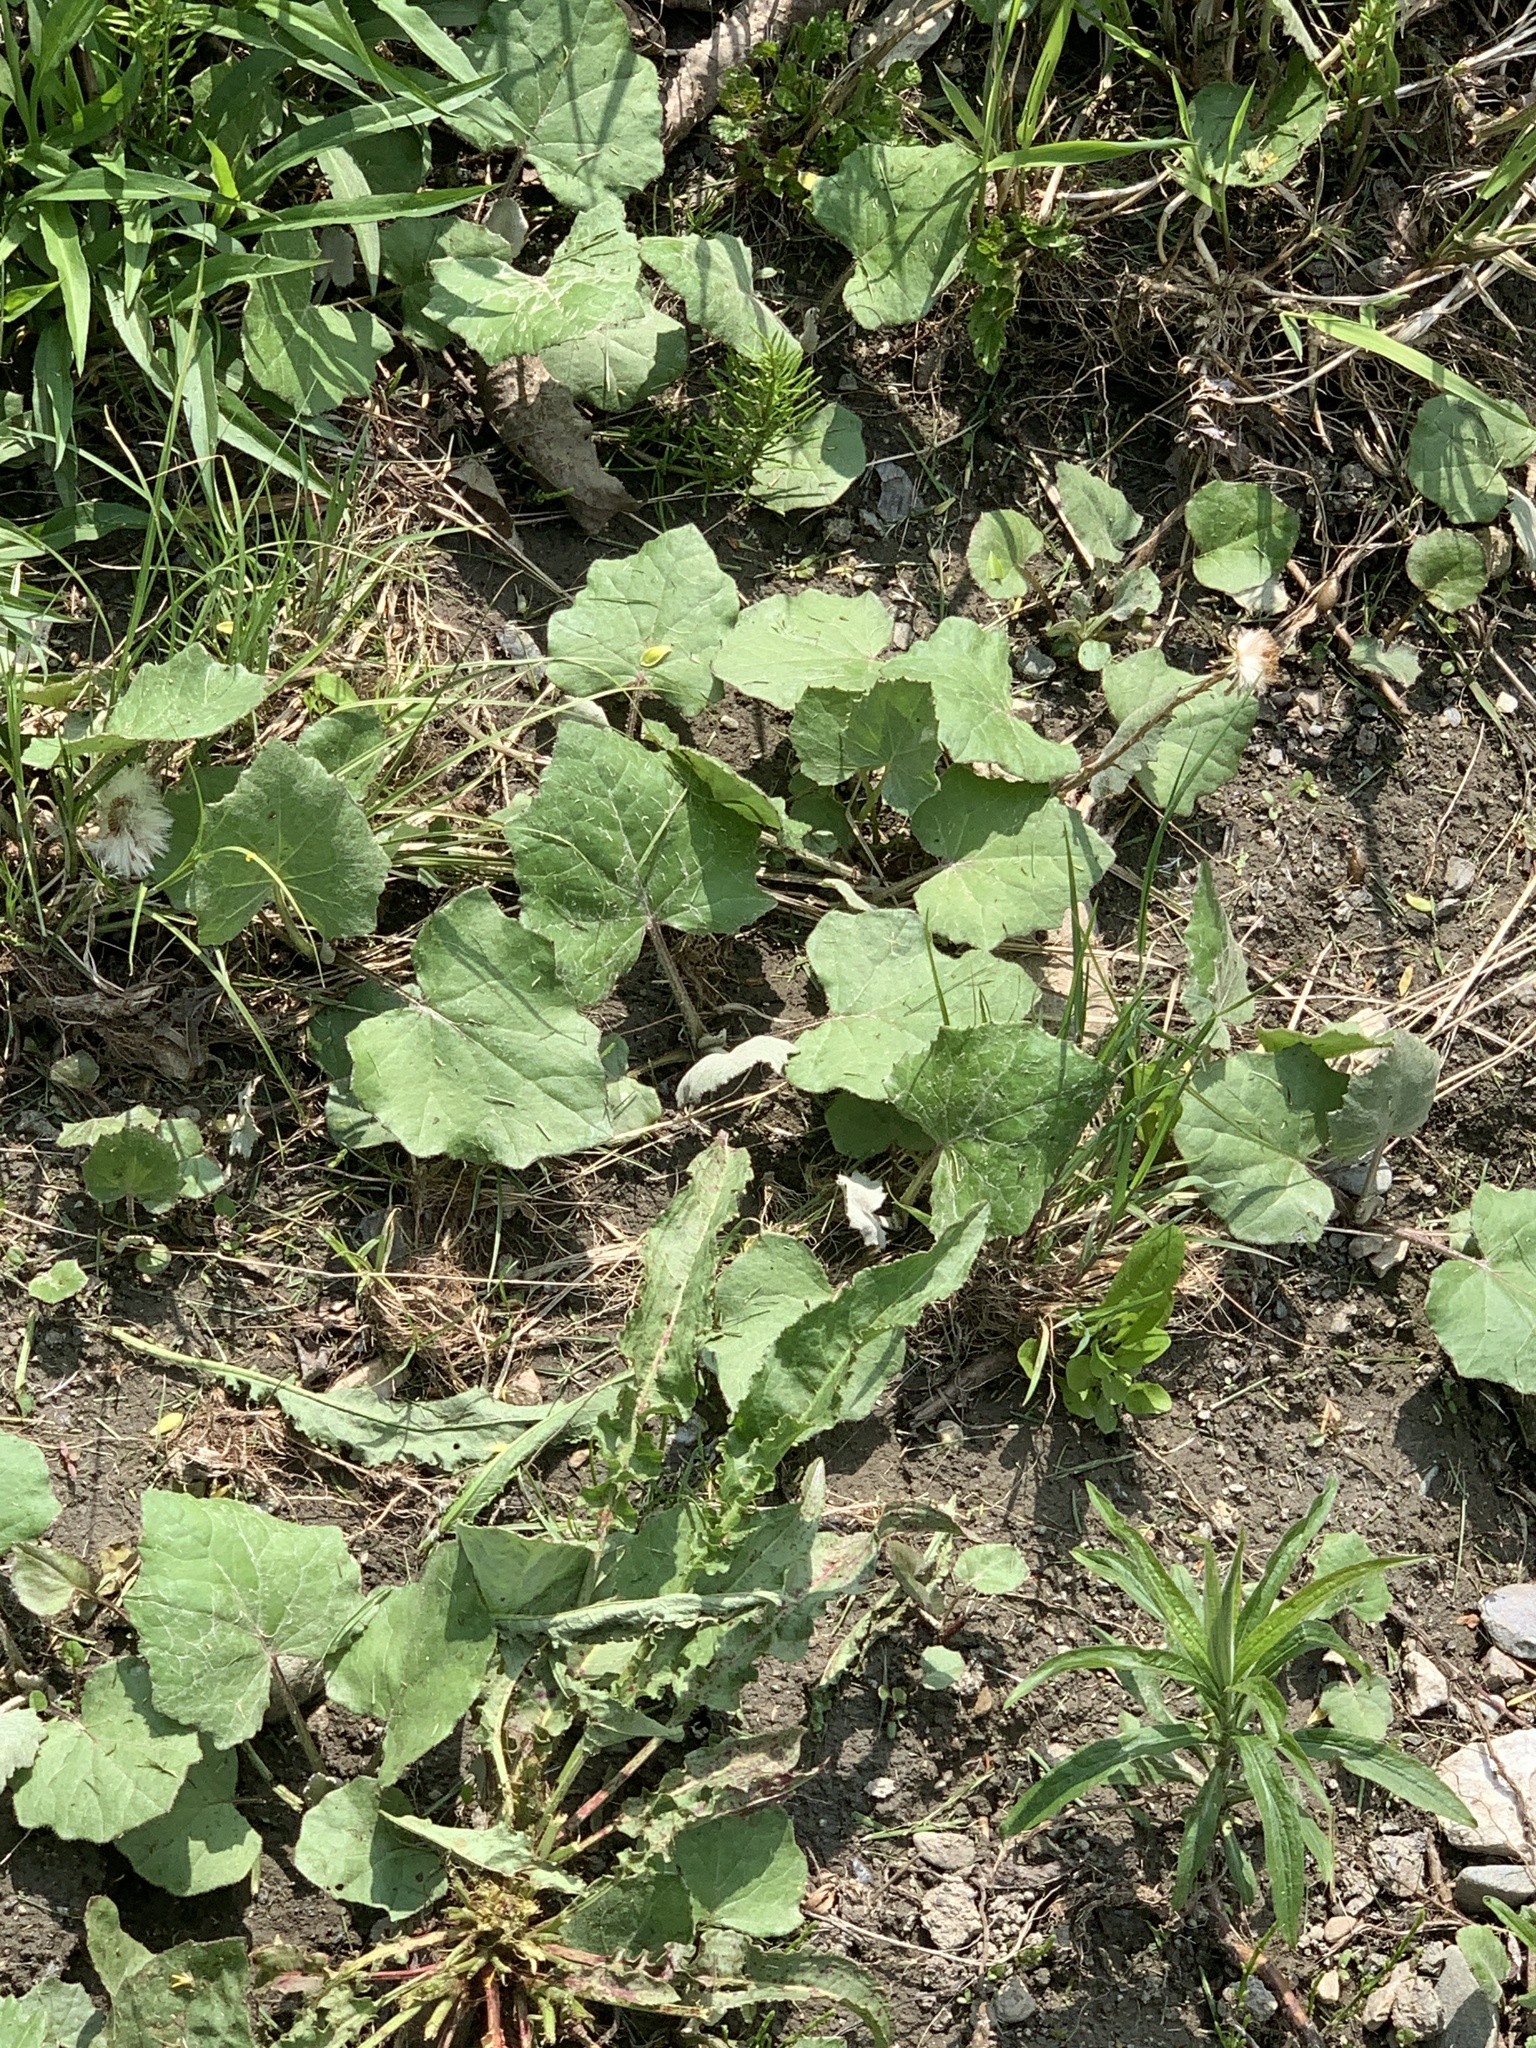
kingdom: Plantae
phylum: Tracheophyta
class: Magnoliopsida
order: Asterales
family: Asteraceae
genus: Tussilago
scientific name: Tussilago farfara
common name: Coltsfoot
